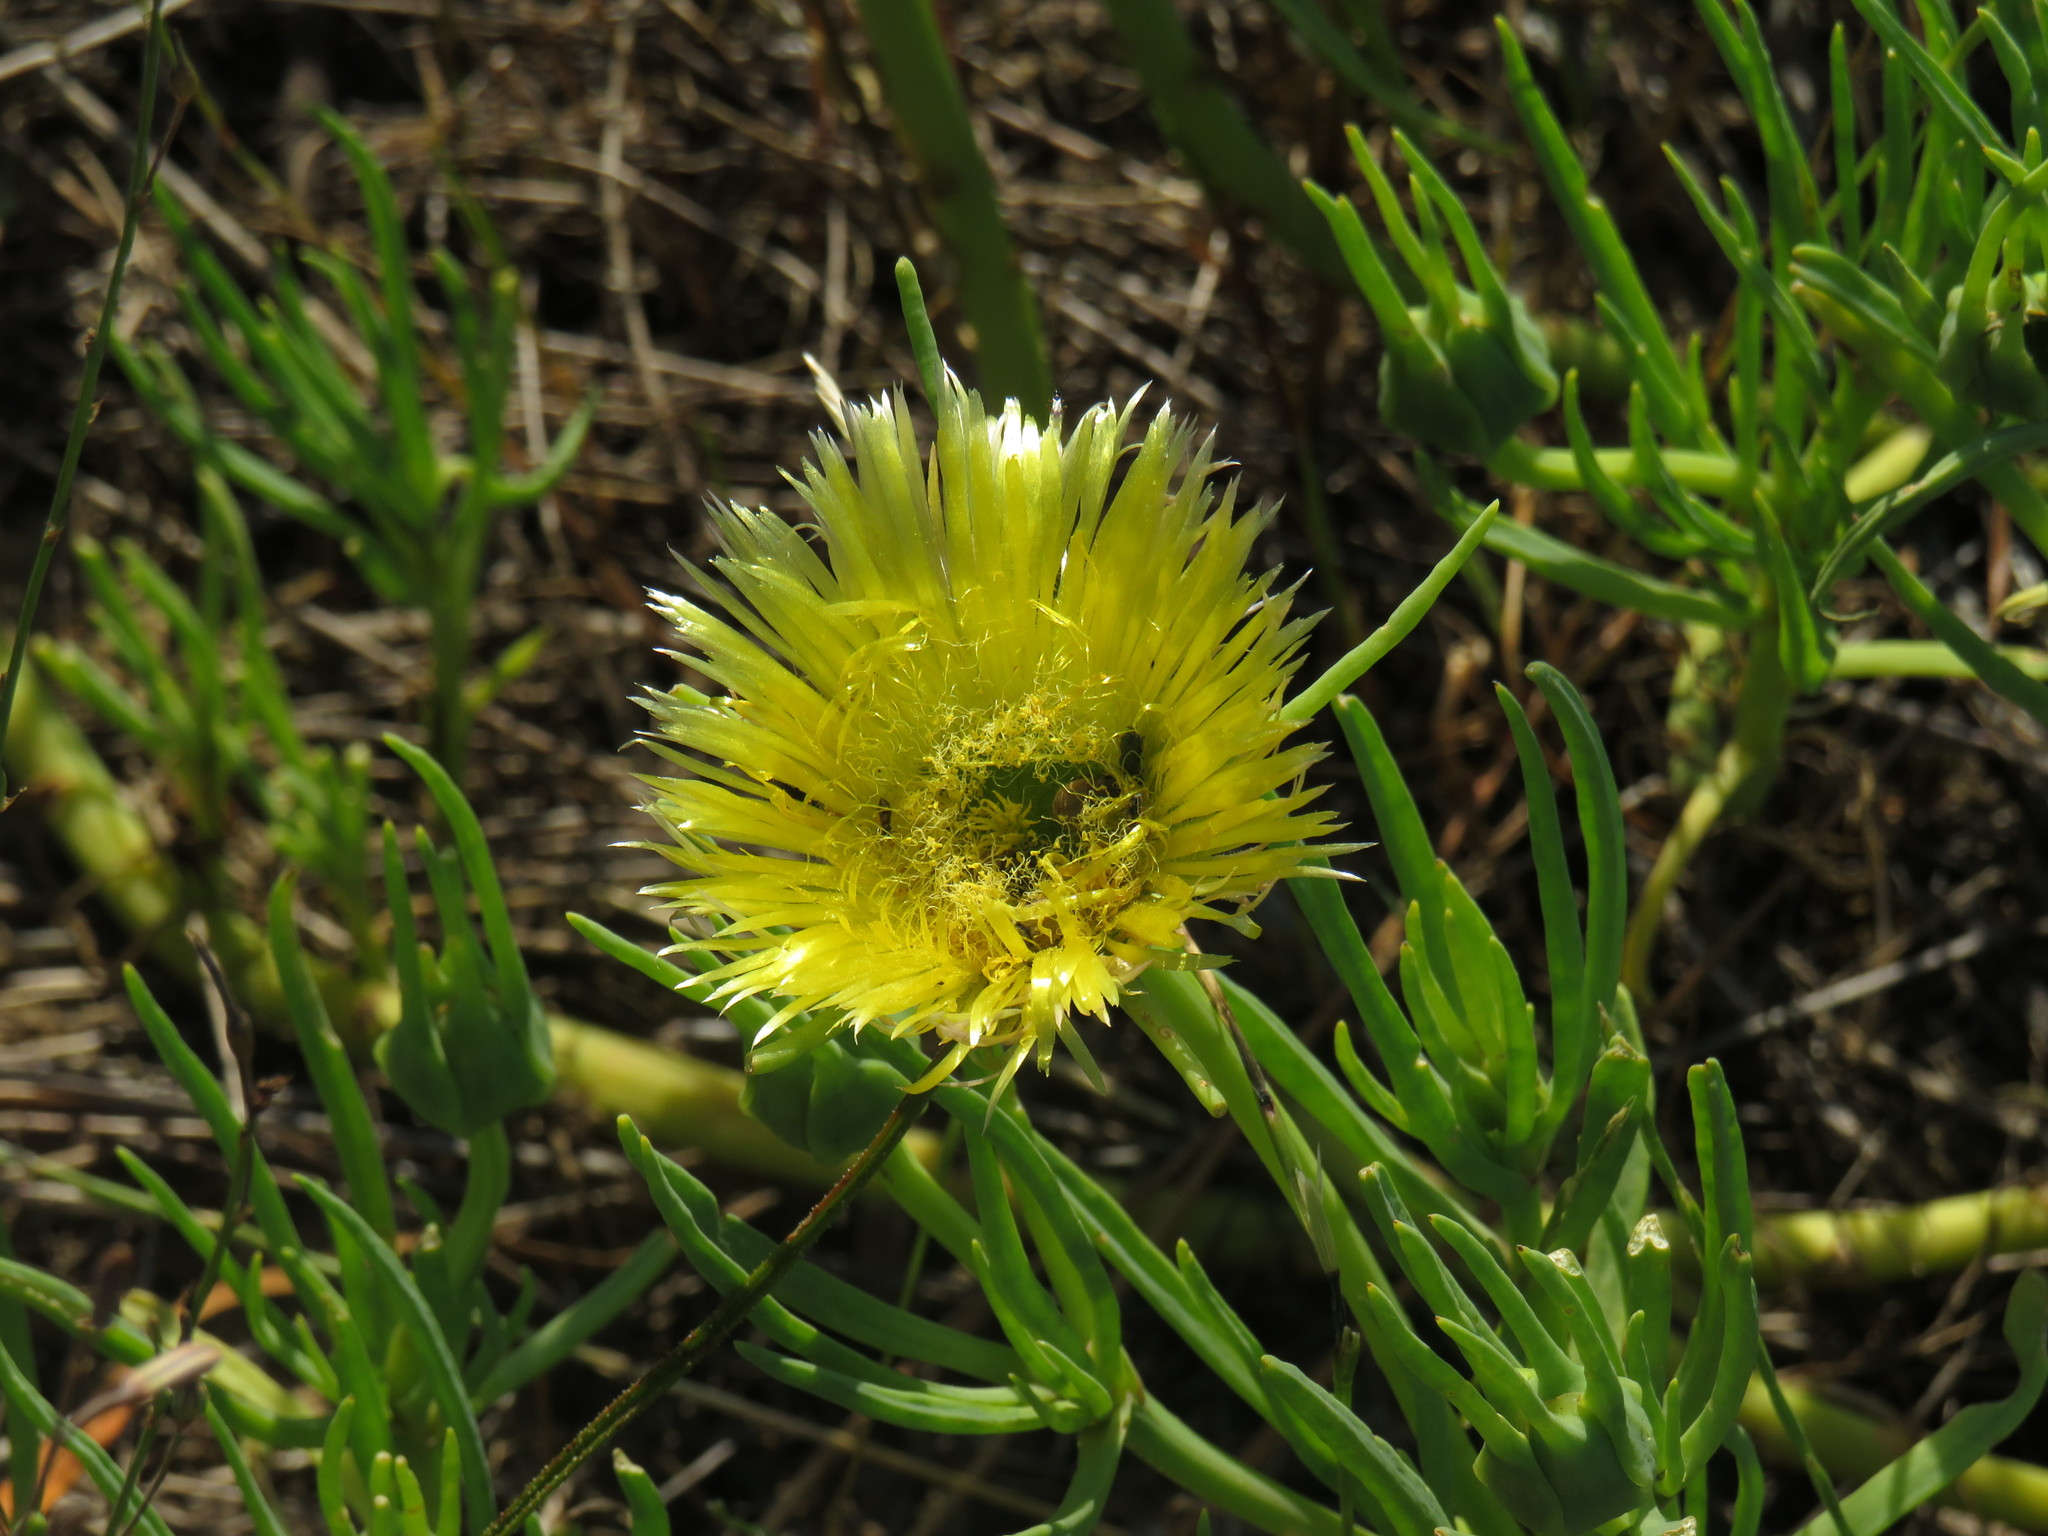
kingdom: Plantae
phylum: Tracheophyta
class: Magnoliopsida
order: Caryophyllales
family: Aizoaceae
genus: Conicosia
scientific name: Conicosia pugioniformis
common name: Narrow-leaved iceplant
